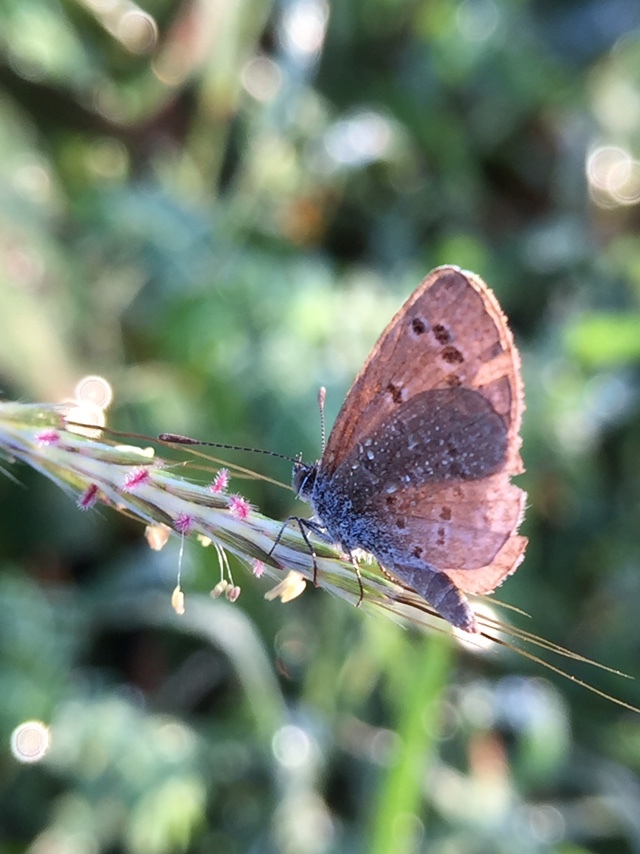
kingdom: Animalia
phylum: Arthropoda
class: Insecta
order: Lepidoptera
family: Lycaenidae
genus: Zizina
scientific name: Zizina otis
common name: Lesser grass blue
